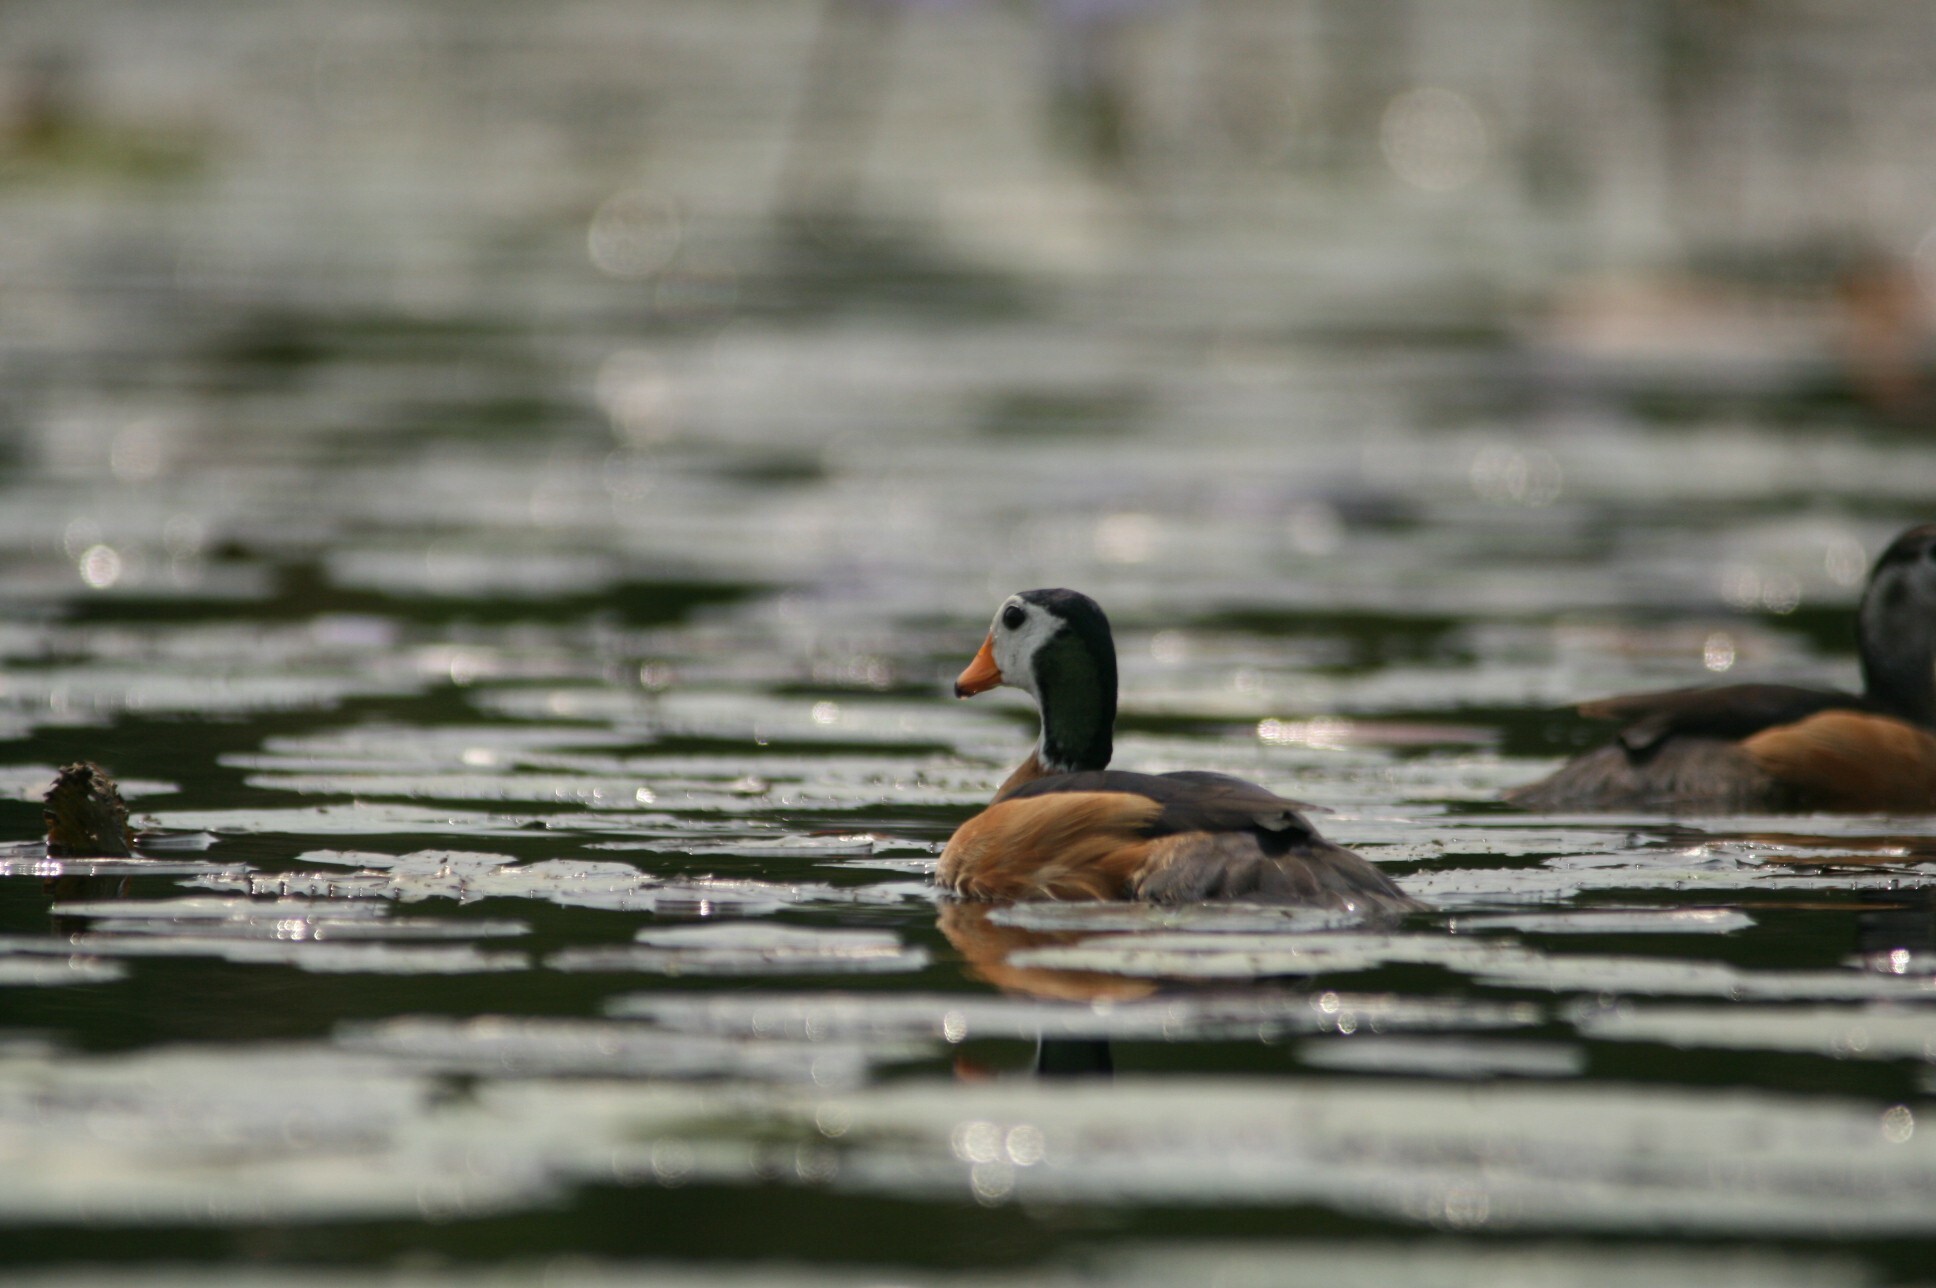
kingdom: Animalia
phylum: Chordata
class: Aves
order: Anseriformes
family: Anatidae
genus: Nettapus
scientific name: Nettapus auritus
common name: African pygmy-goose
